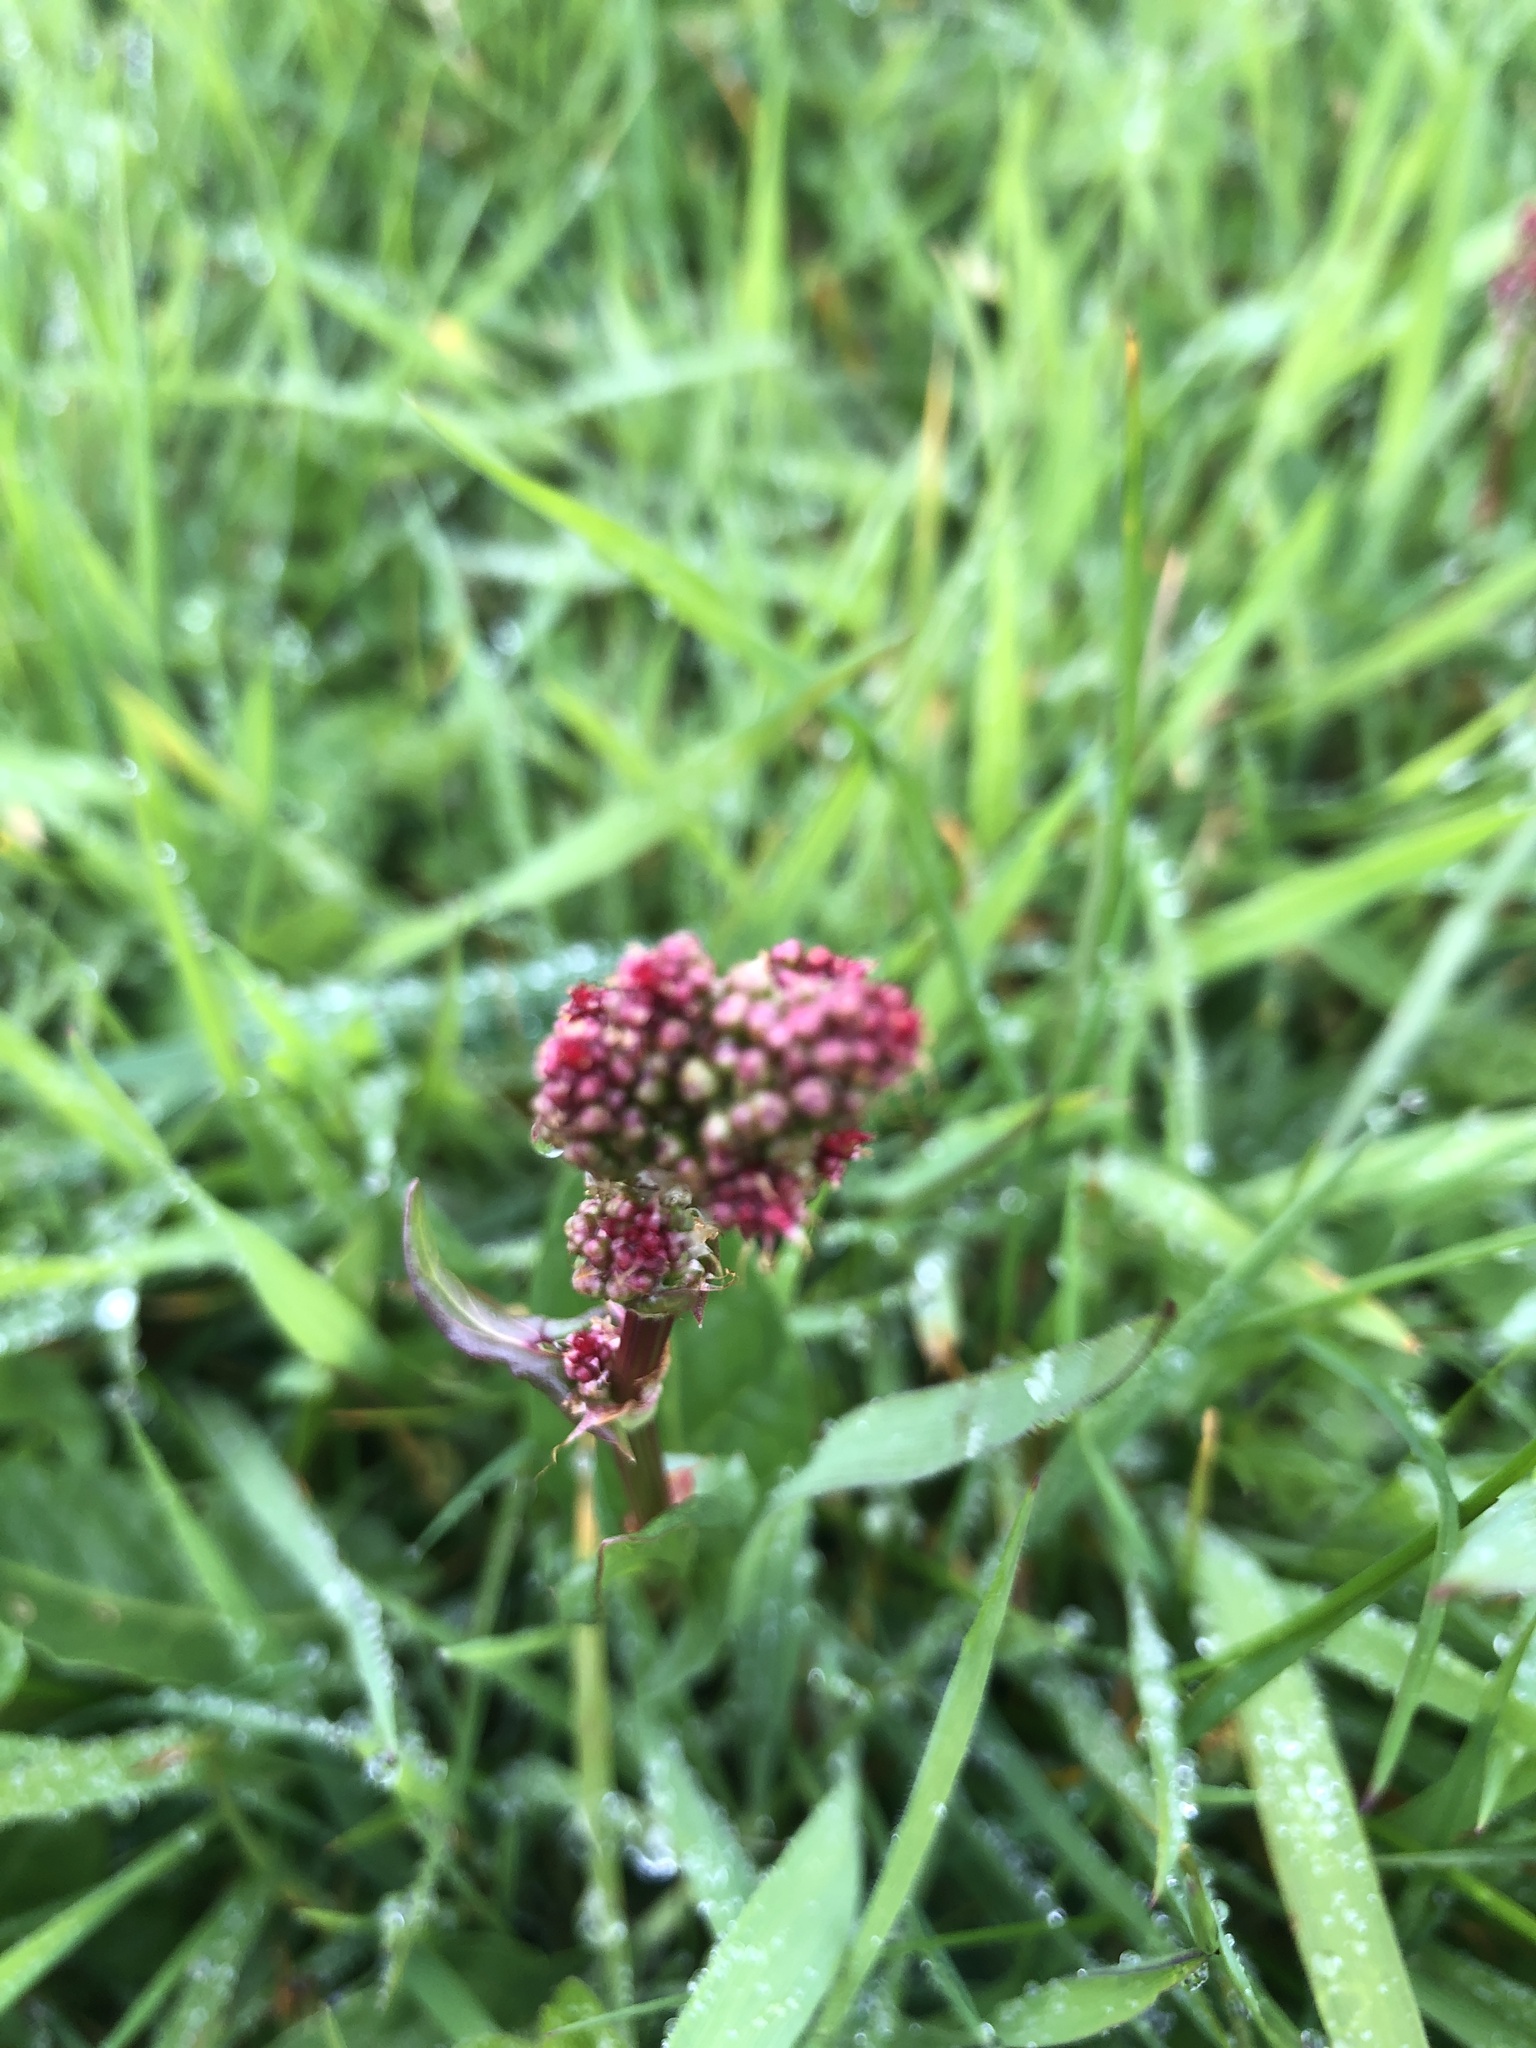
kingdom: Plantae
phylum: Tracheophyta
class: Magnoliopsida
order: Caryophyllales
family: Polygonaceae
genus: Rumex
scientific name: Rumex acetosa
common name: Garden sorrel
